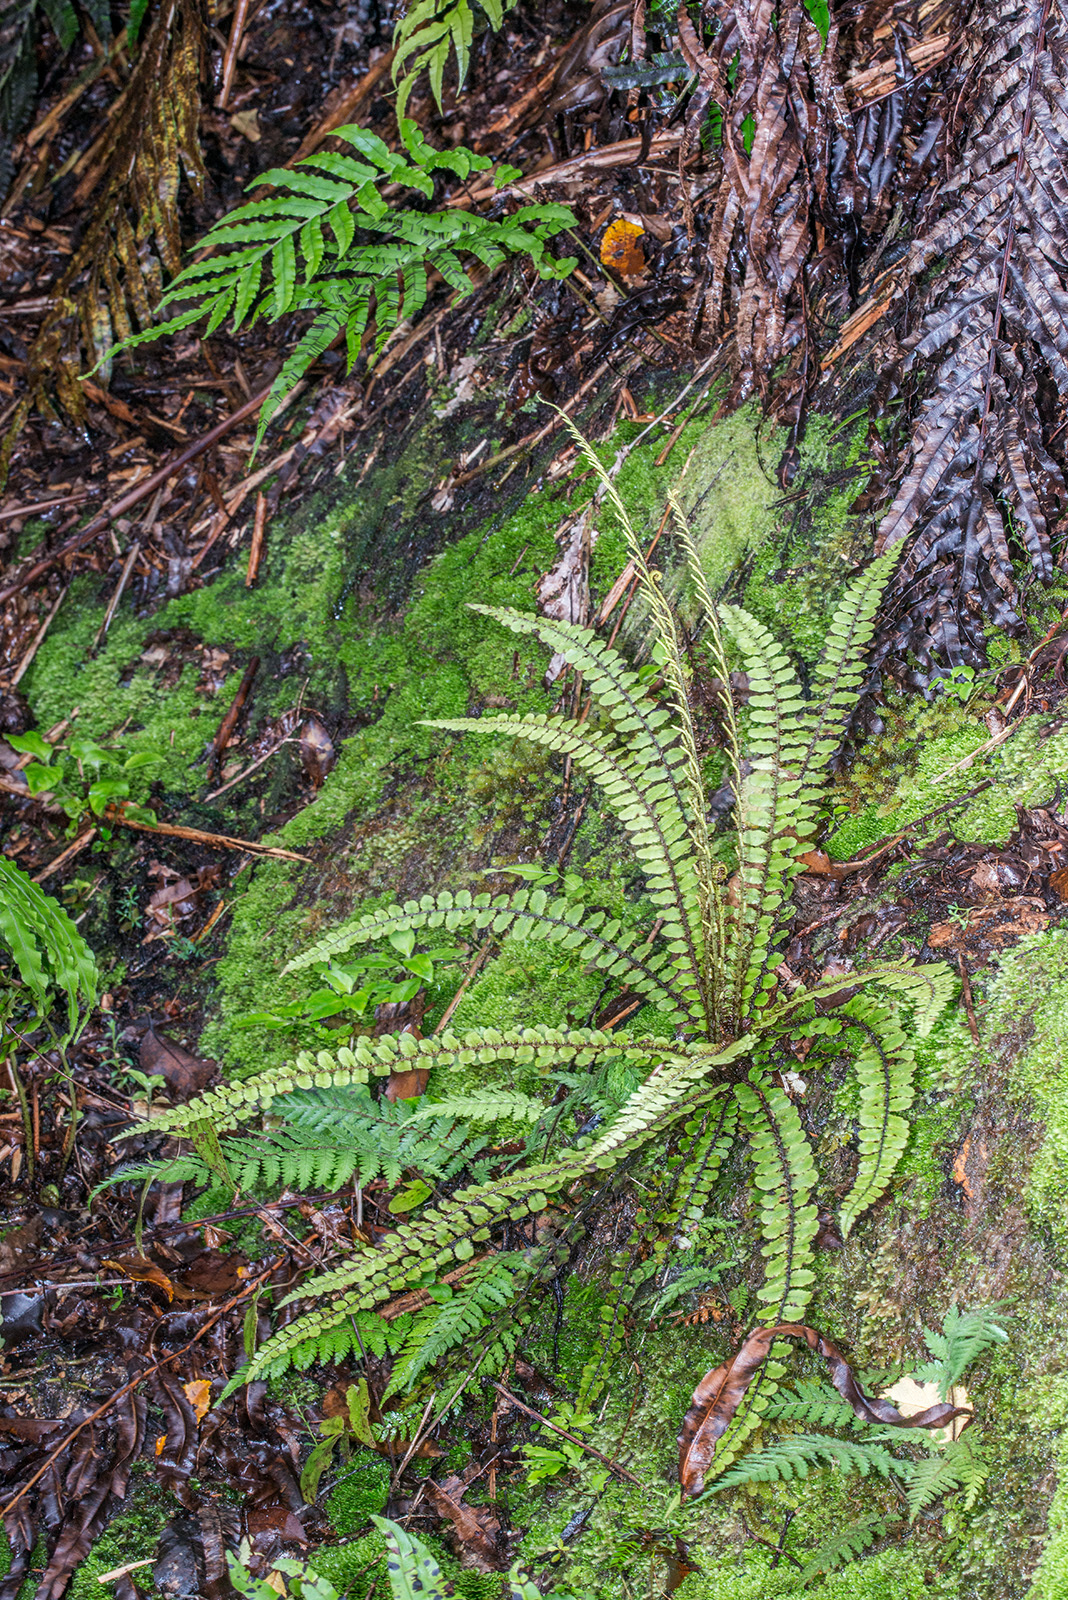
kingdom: Plantae
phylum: Tracheophyta
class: Polypodiopsida
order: Polypodiales
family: Blechnaceae
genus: Cranfillia
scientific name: Cranfillia fluviatilis
